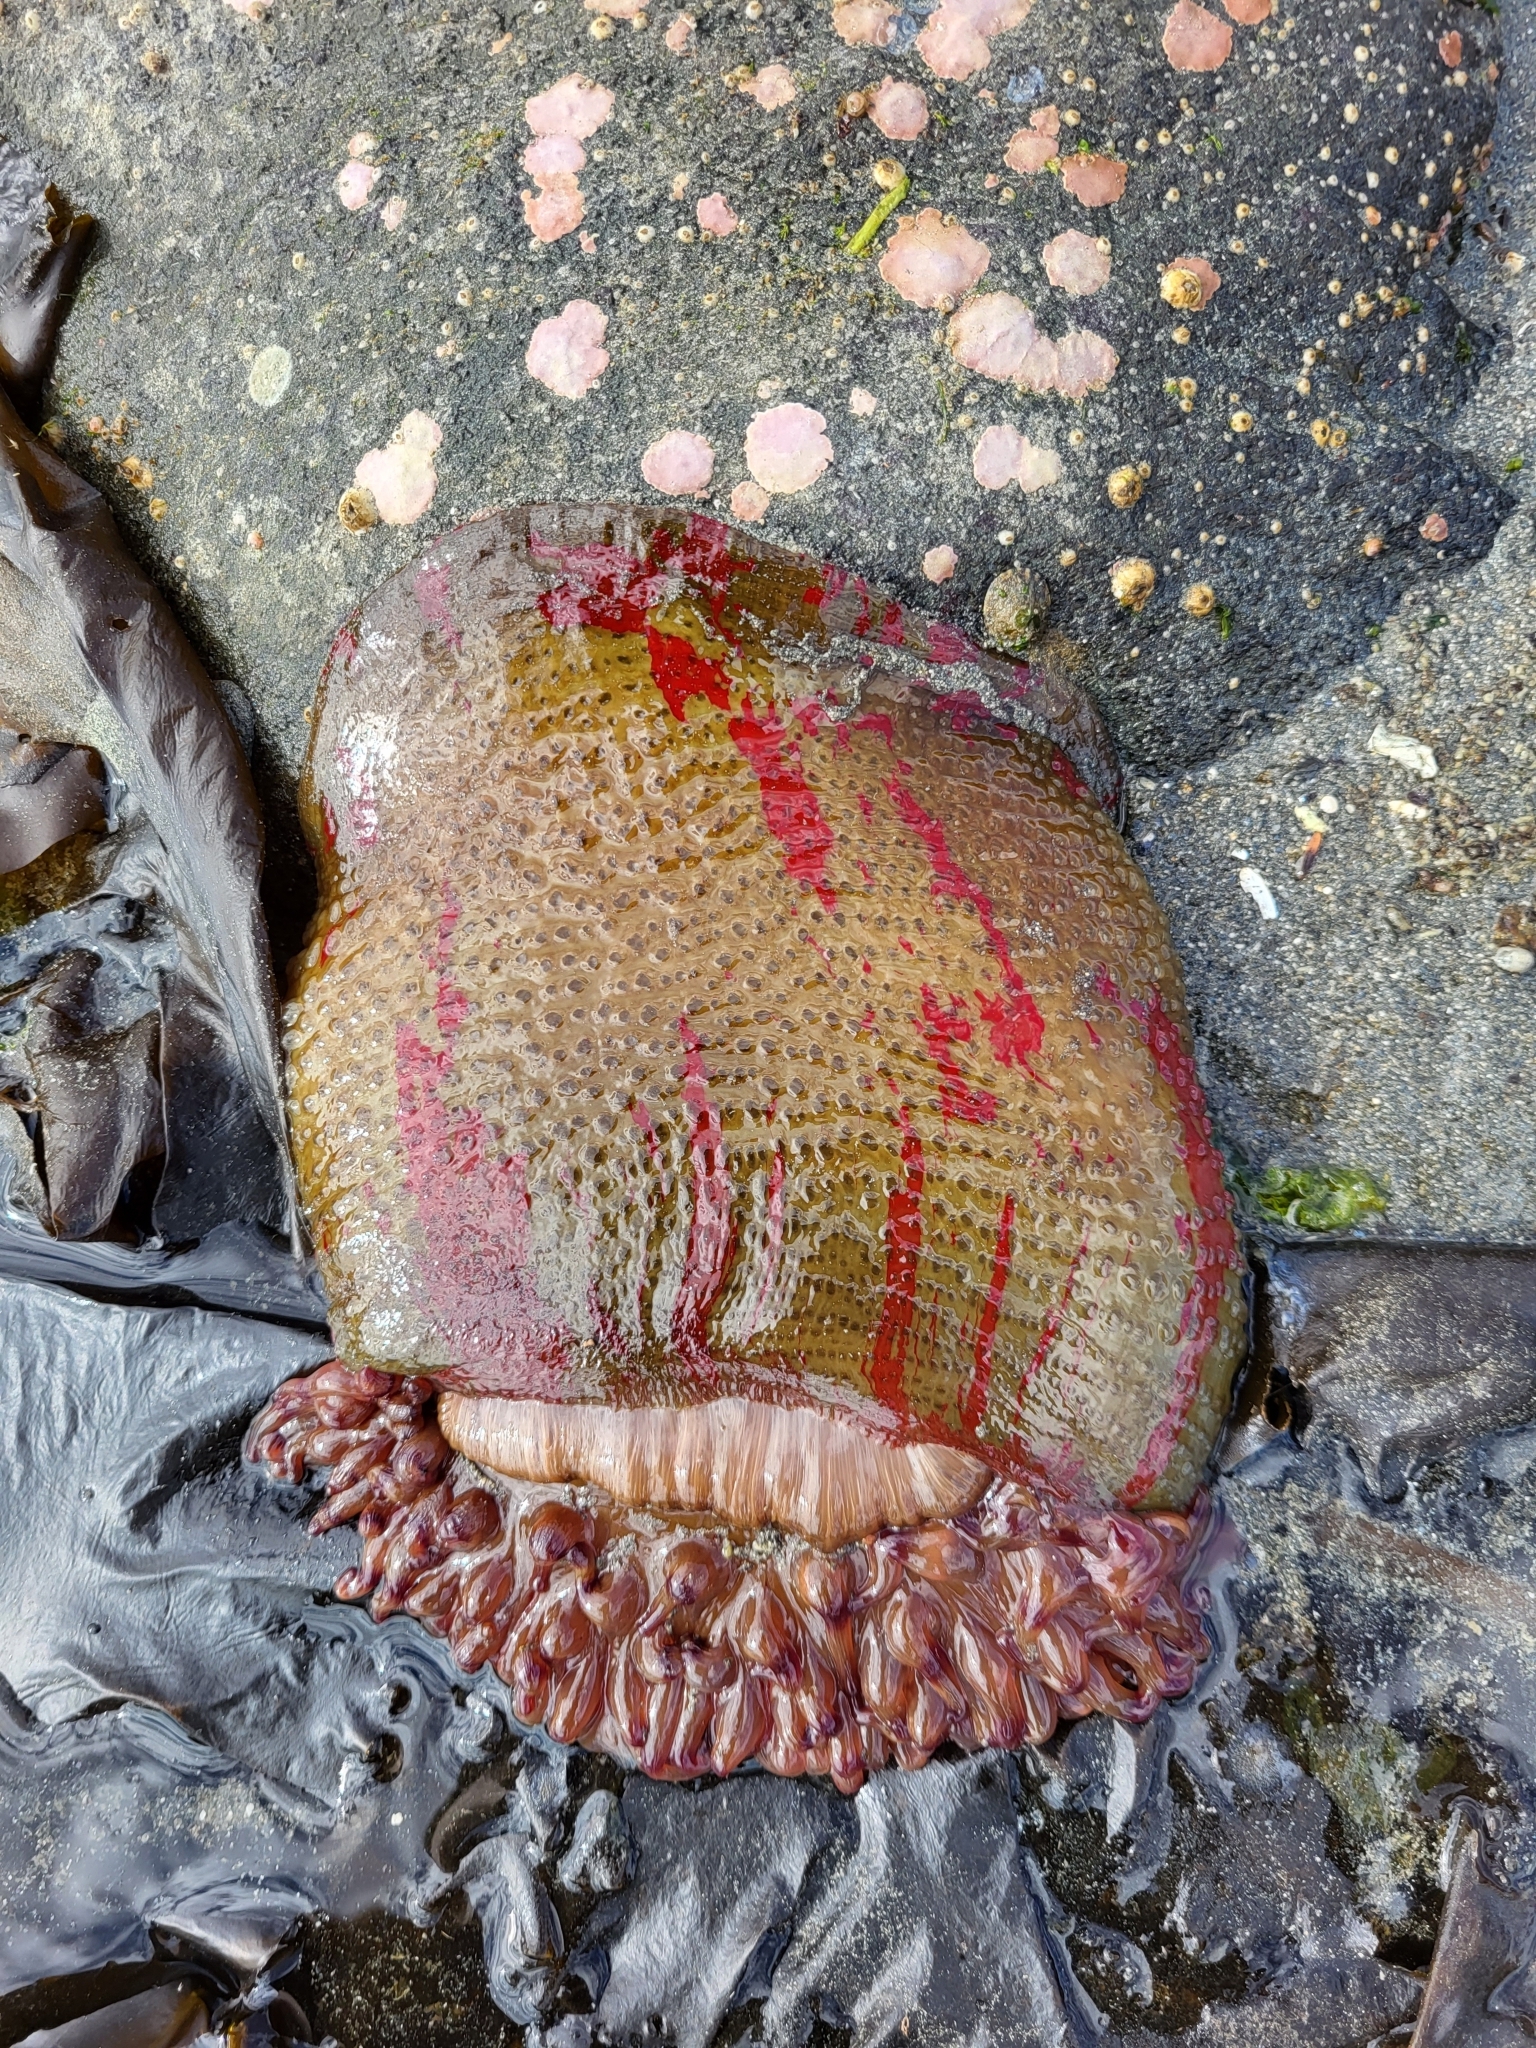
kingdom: Animalia
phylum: Cnidaria
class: Anthozoa
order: Actiniaria
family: Actiniidae
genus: Urticina
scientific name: Urticina grebelnyi
